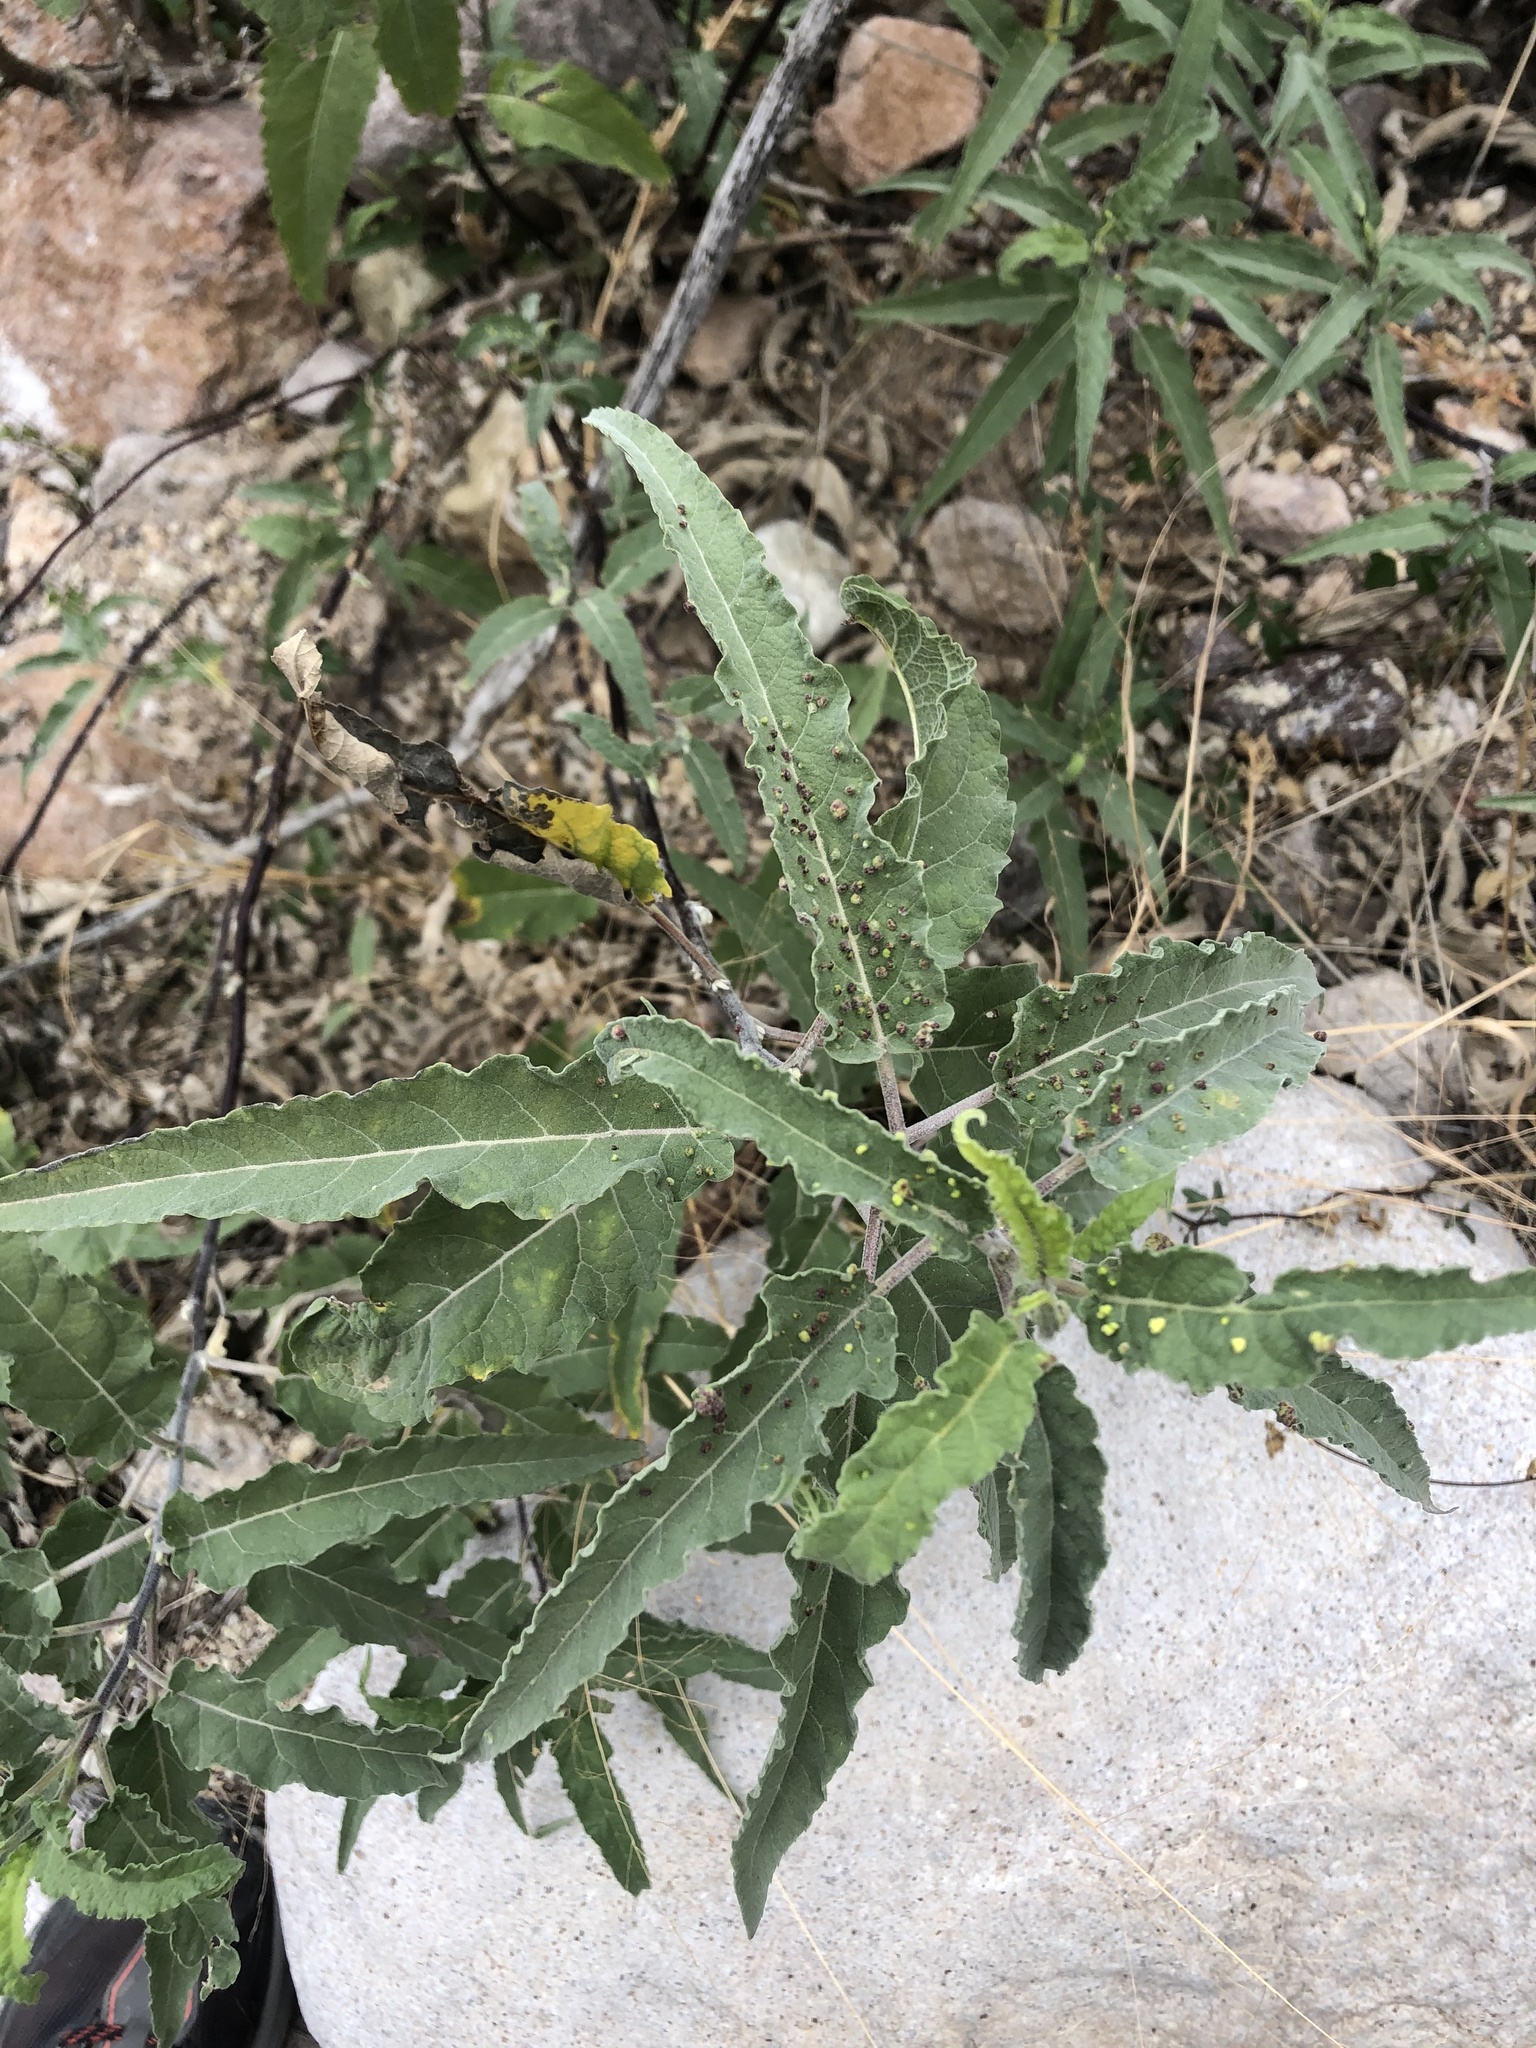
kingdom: Plantae
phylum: Tracheophyta
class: Magnoliopsida
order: Asterales
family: Asteraceae
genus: Ambrosia
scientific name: Ambrosia ambrosioides
